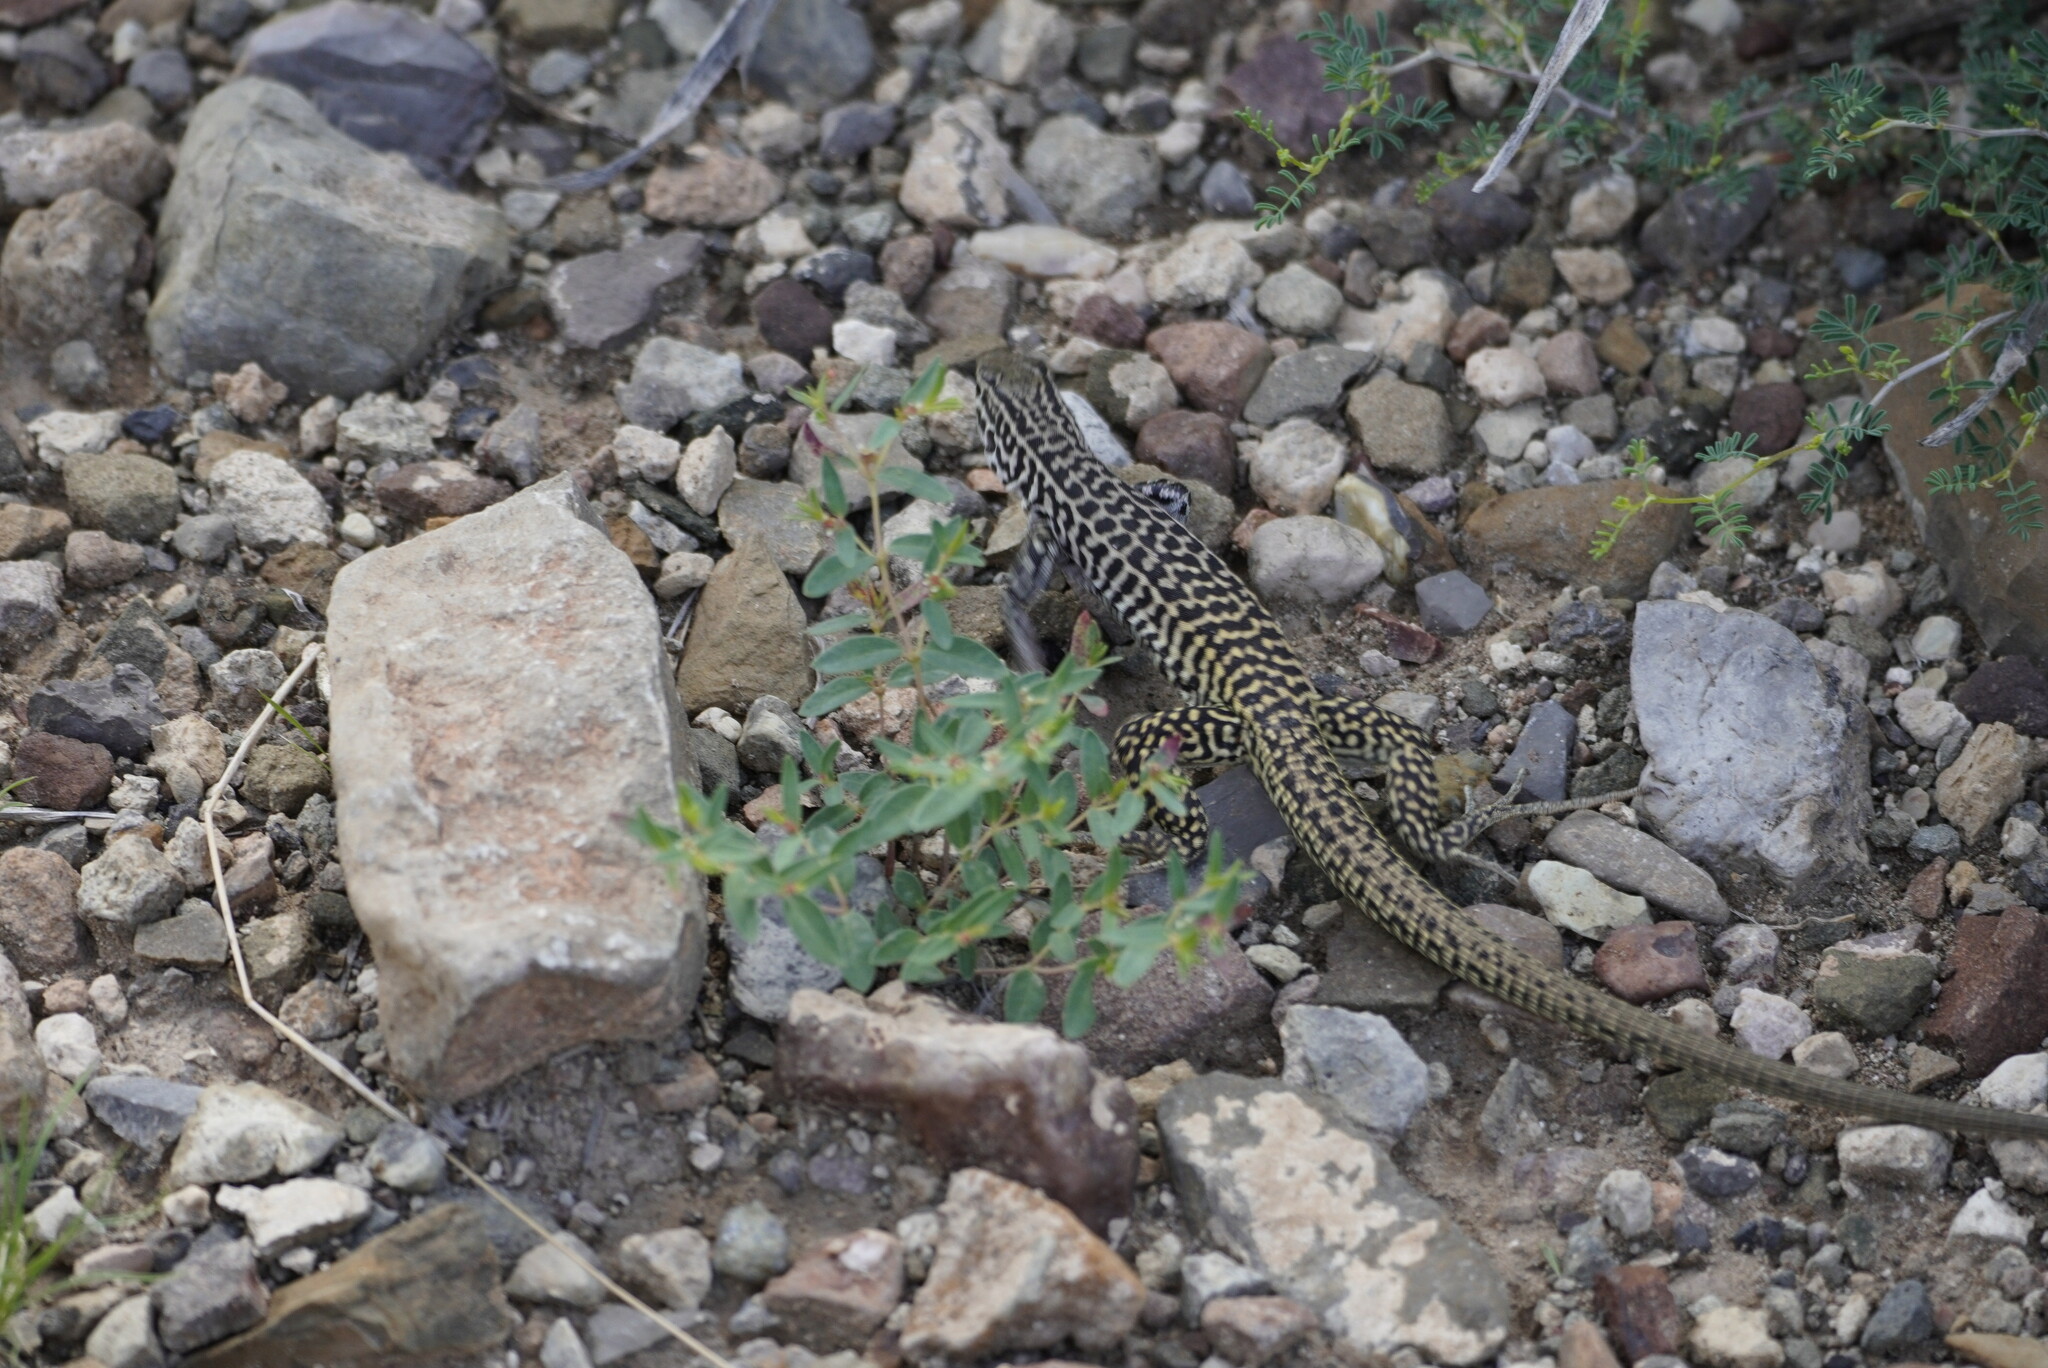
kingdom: Animalia
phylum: Chordata
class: Squamata
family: Teiidae
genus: Aspidoscelis
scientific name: Aspidoscelis tesselatus
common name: Common checkered whiptail [tesselata]
